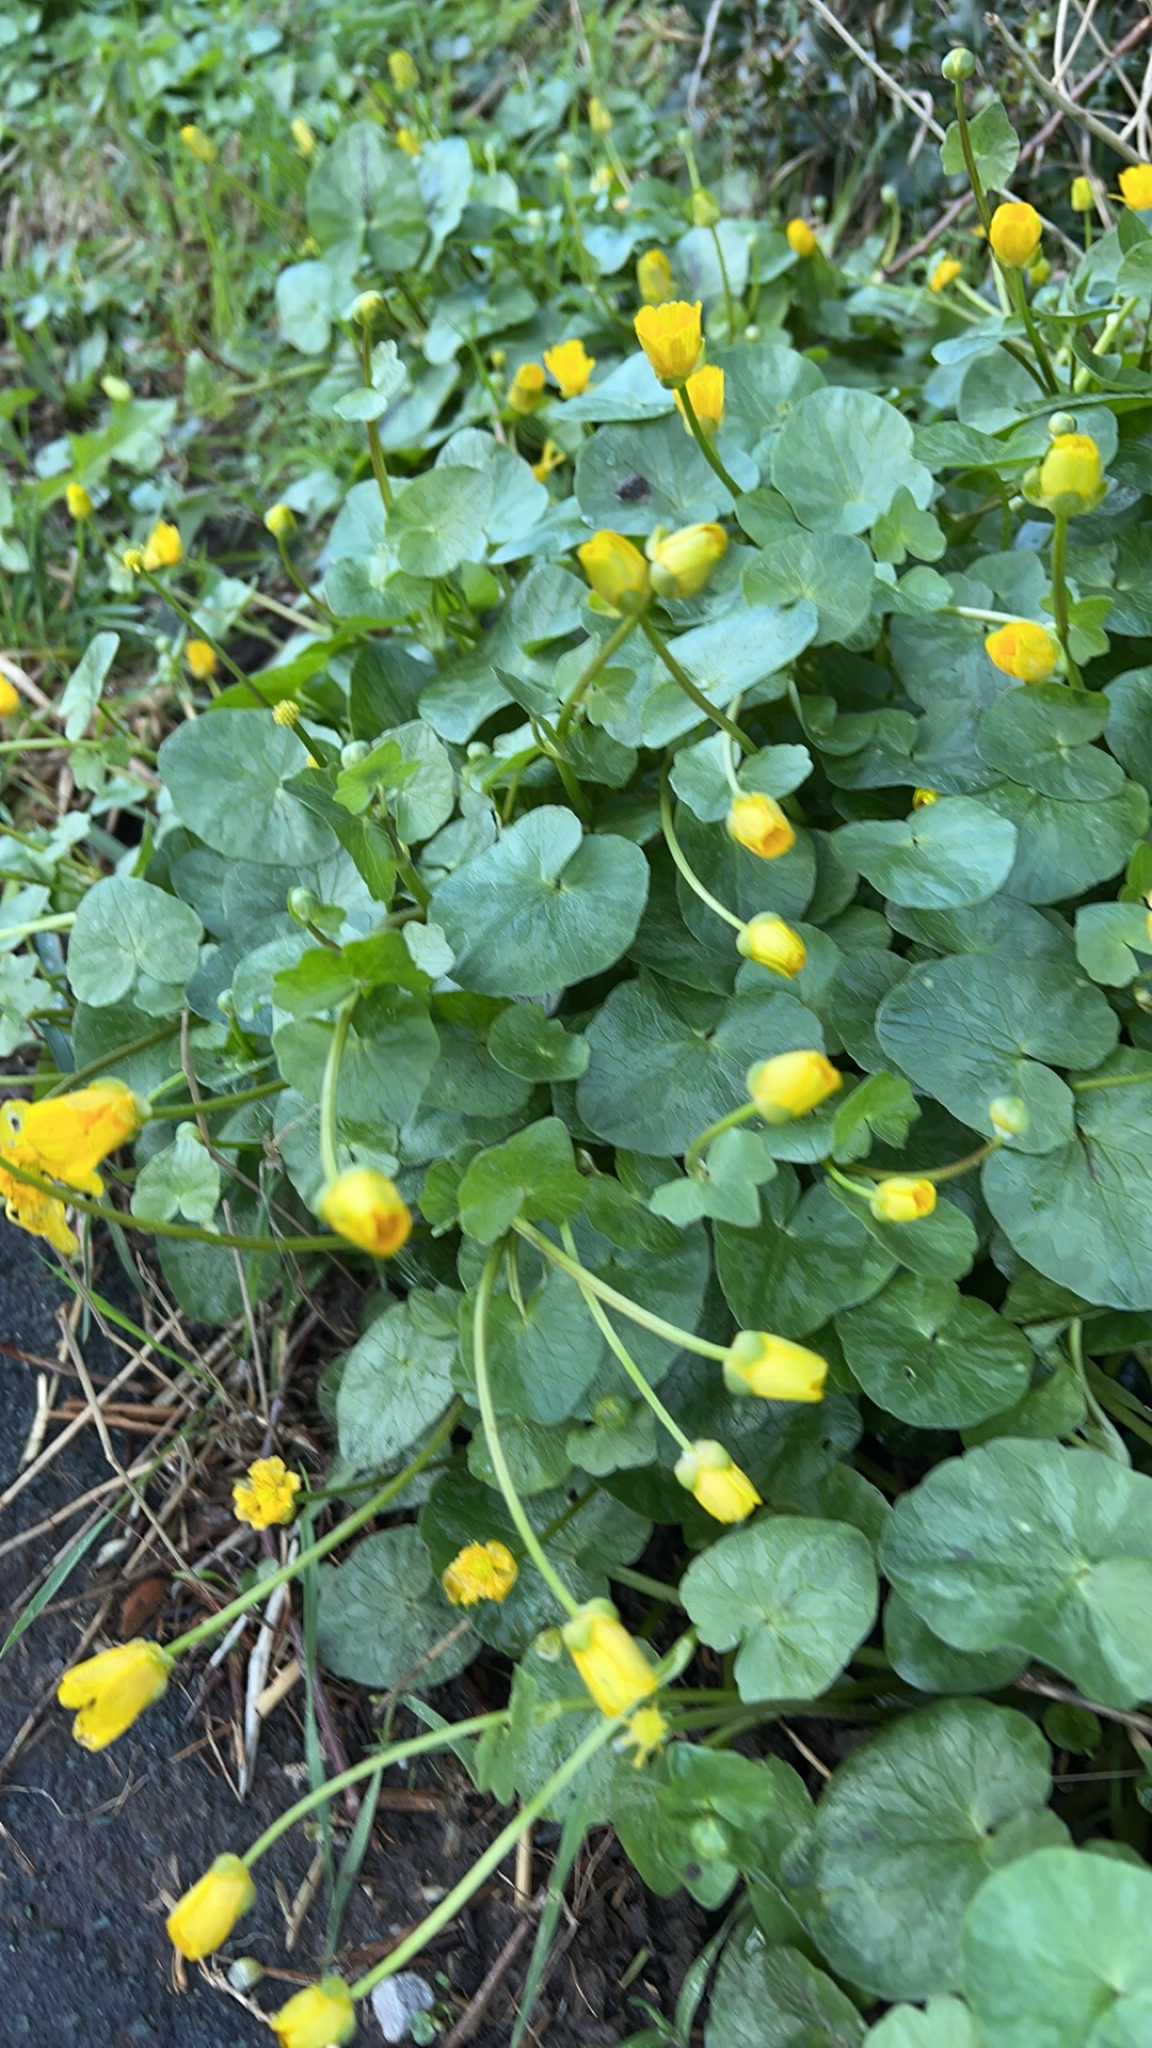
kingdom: Plantae
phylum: Tracheophyta
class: Magnoliopsida
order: Ranunculales
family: Ranunculaceae
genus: Ficaria
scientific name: Ficaria verna
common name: Lesser celandine
